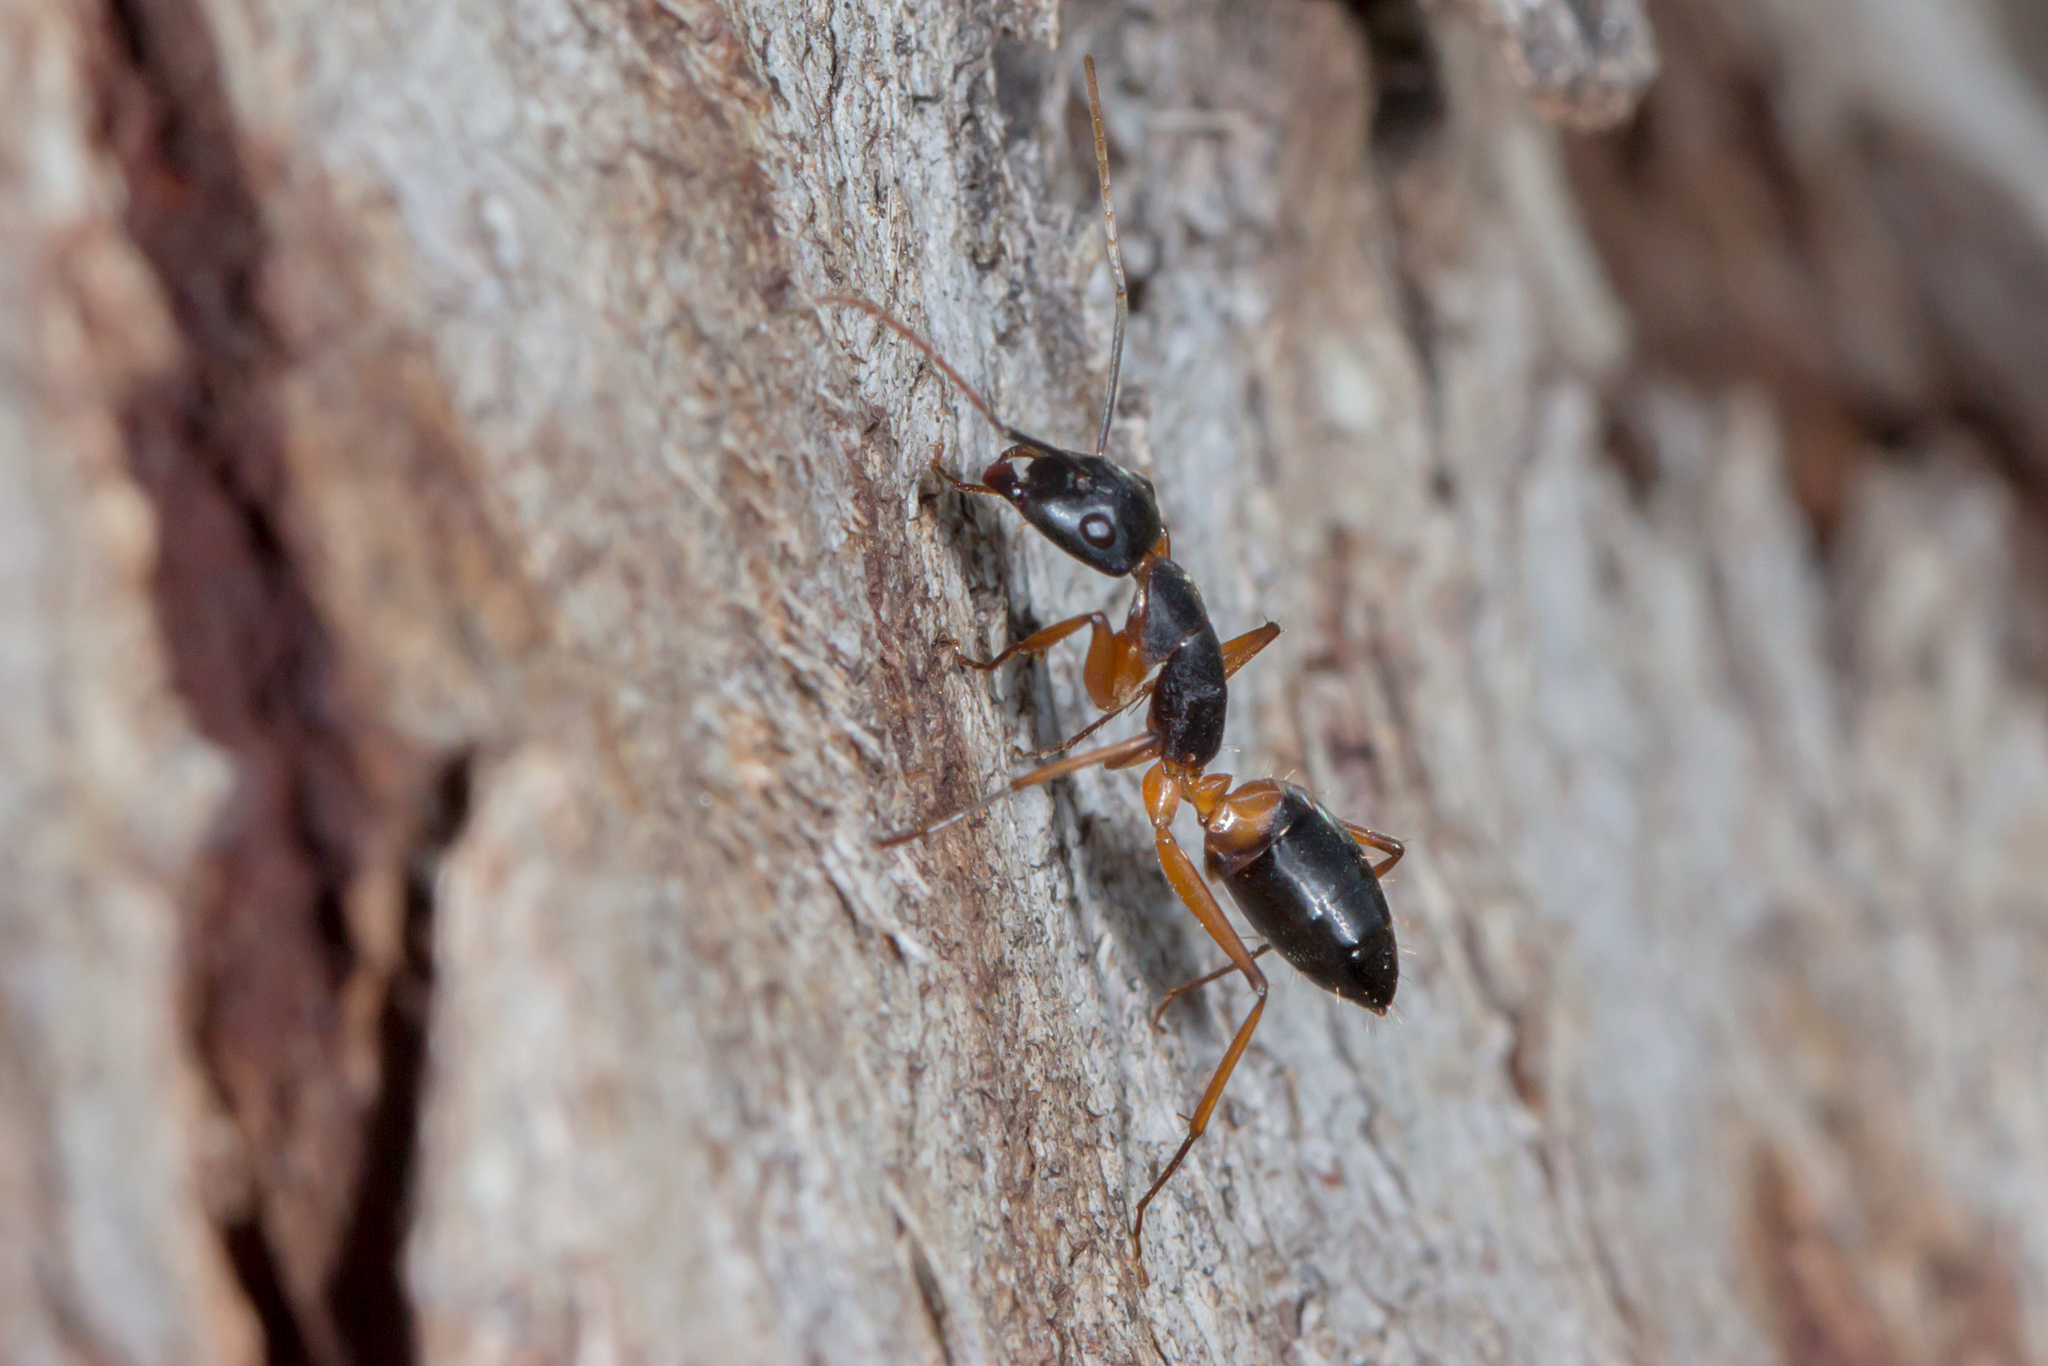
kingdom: Animalia
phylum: Arthropoda
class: Insecta
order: Hymenoptera
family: Formicidae
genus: Camponotus
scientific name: Camponotus consobrinus
